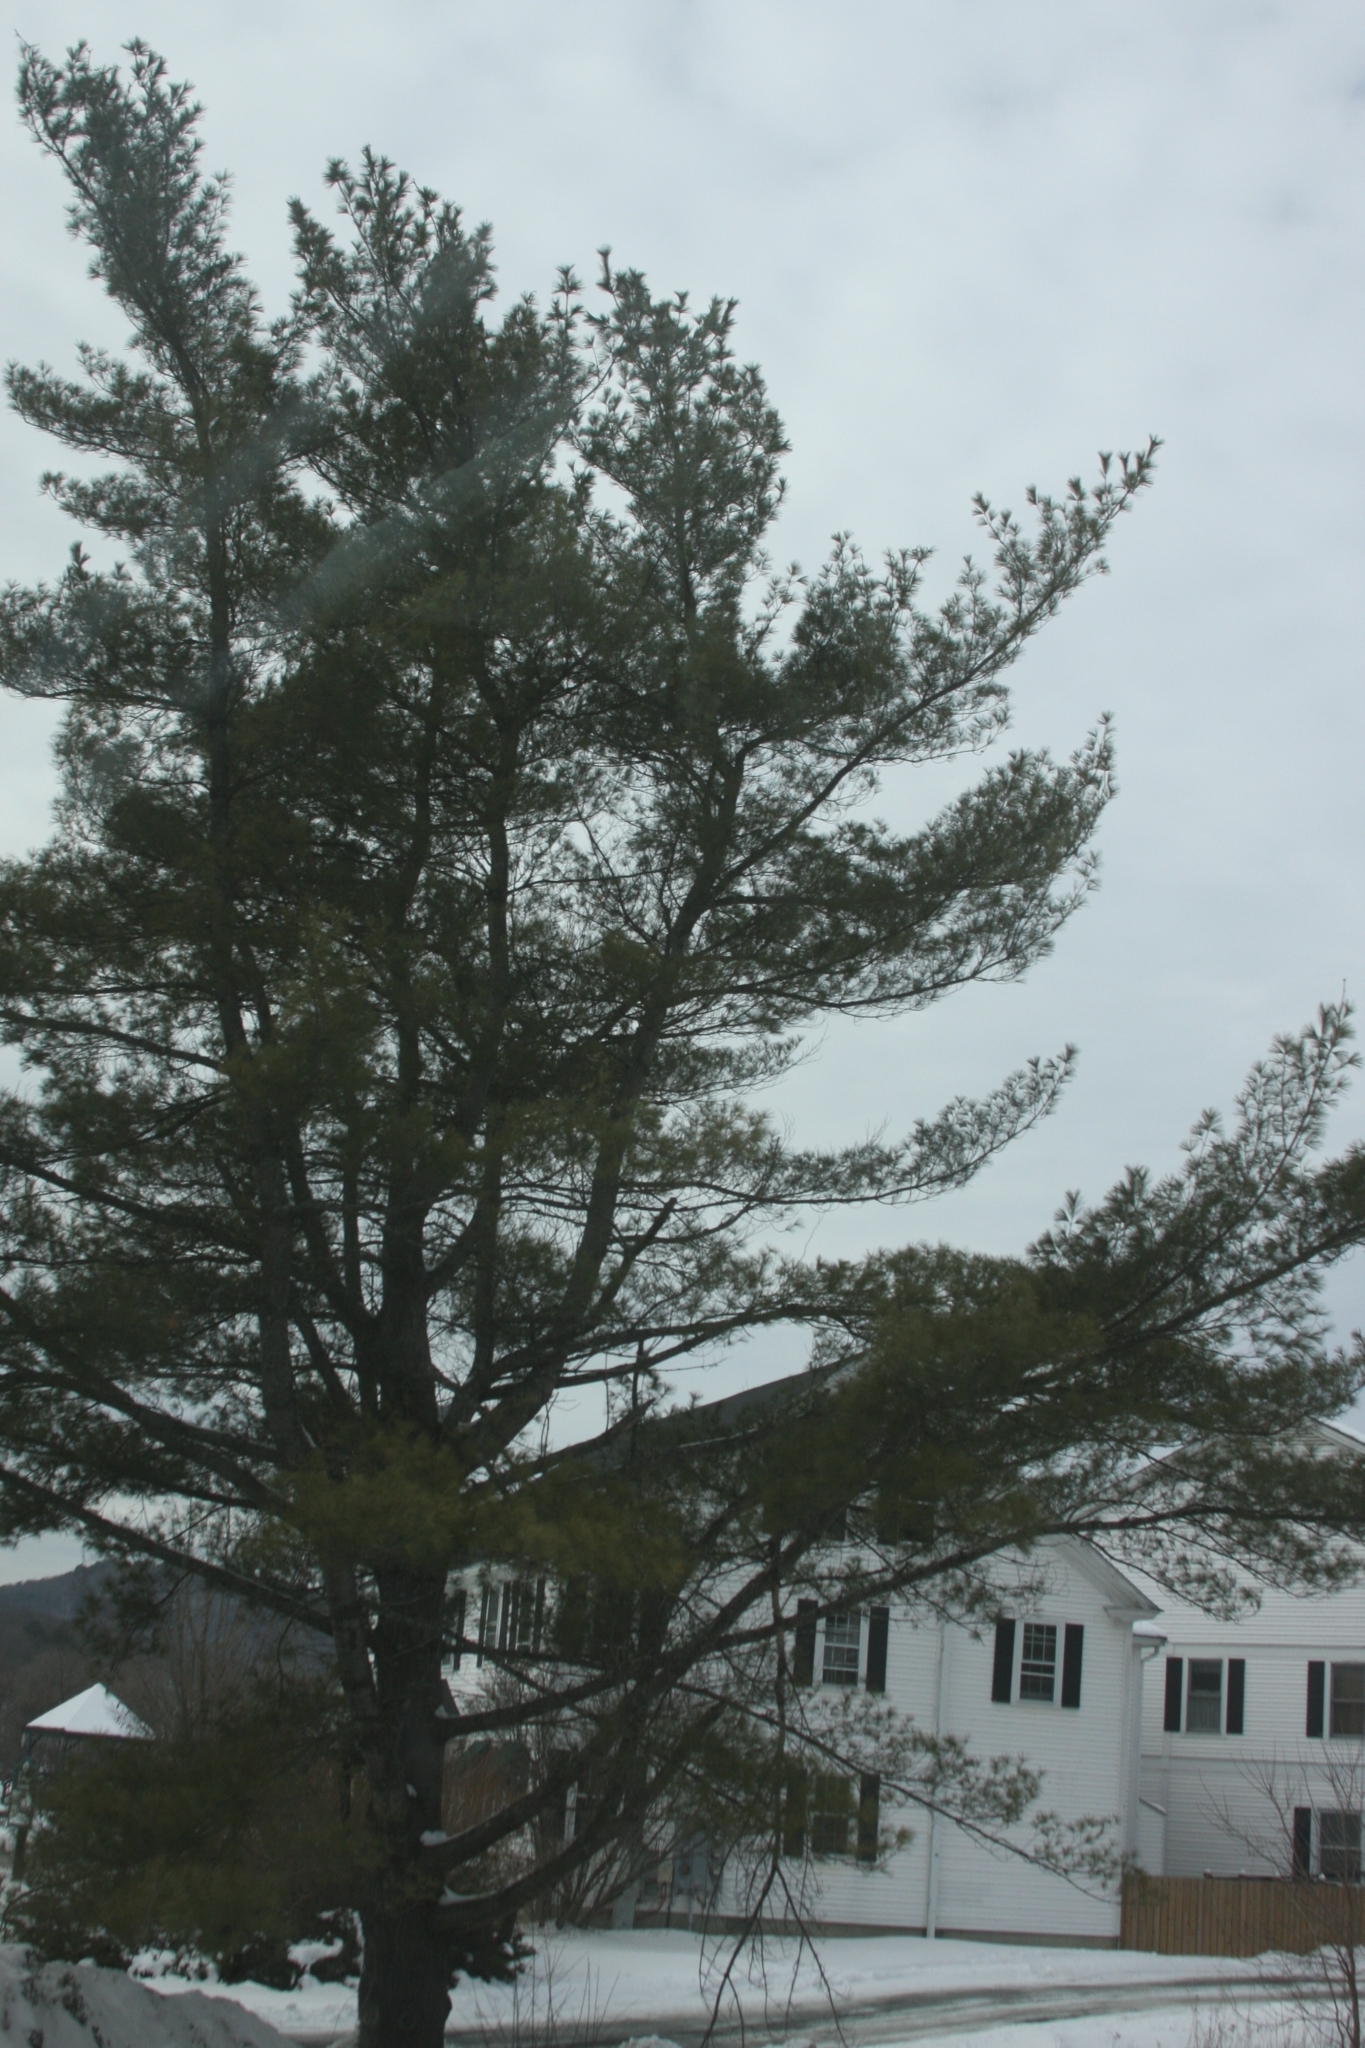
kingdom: Plantae
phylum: Tracheophyta
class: Pinopsida
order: Pinales
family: Pinaceae
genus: Pinus
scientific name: Pinus strobus
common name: Weymouth pine
